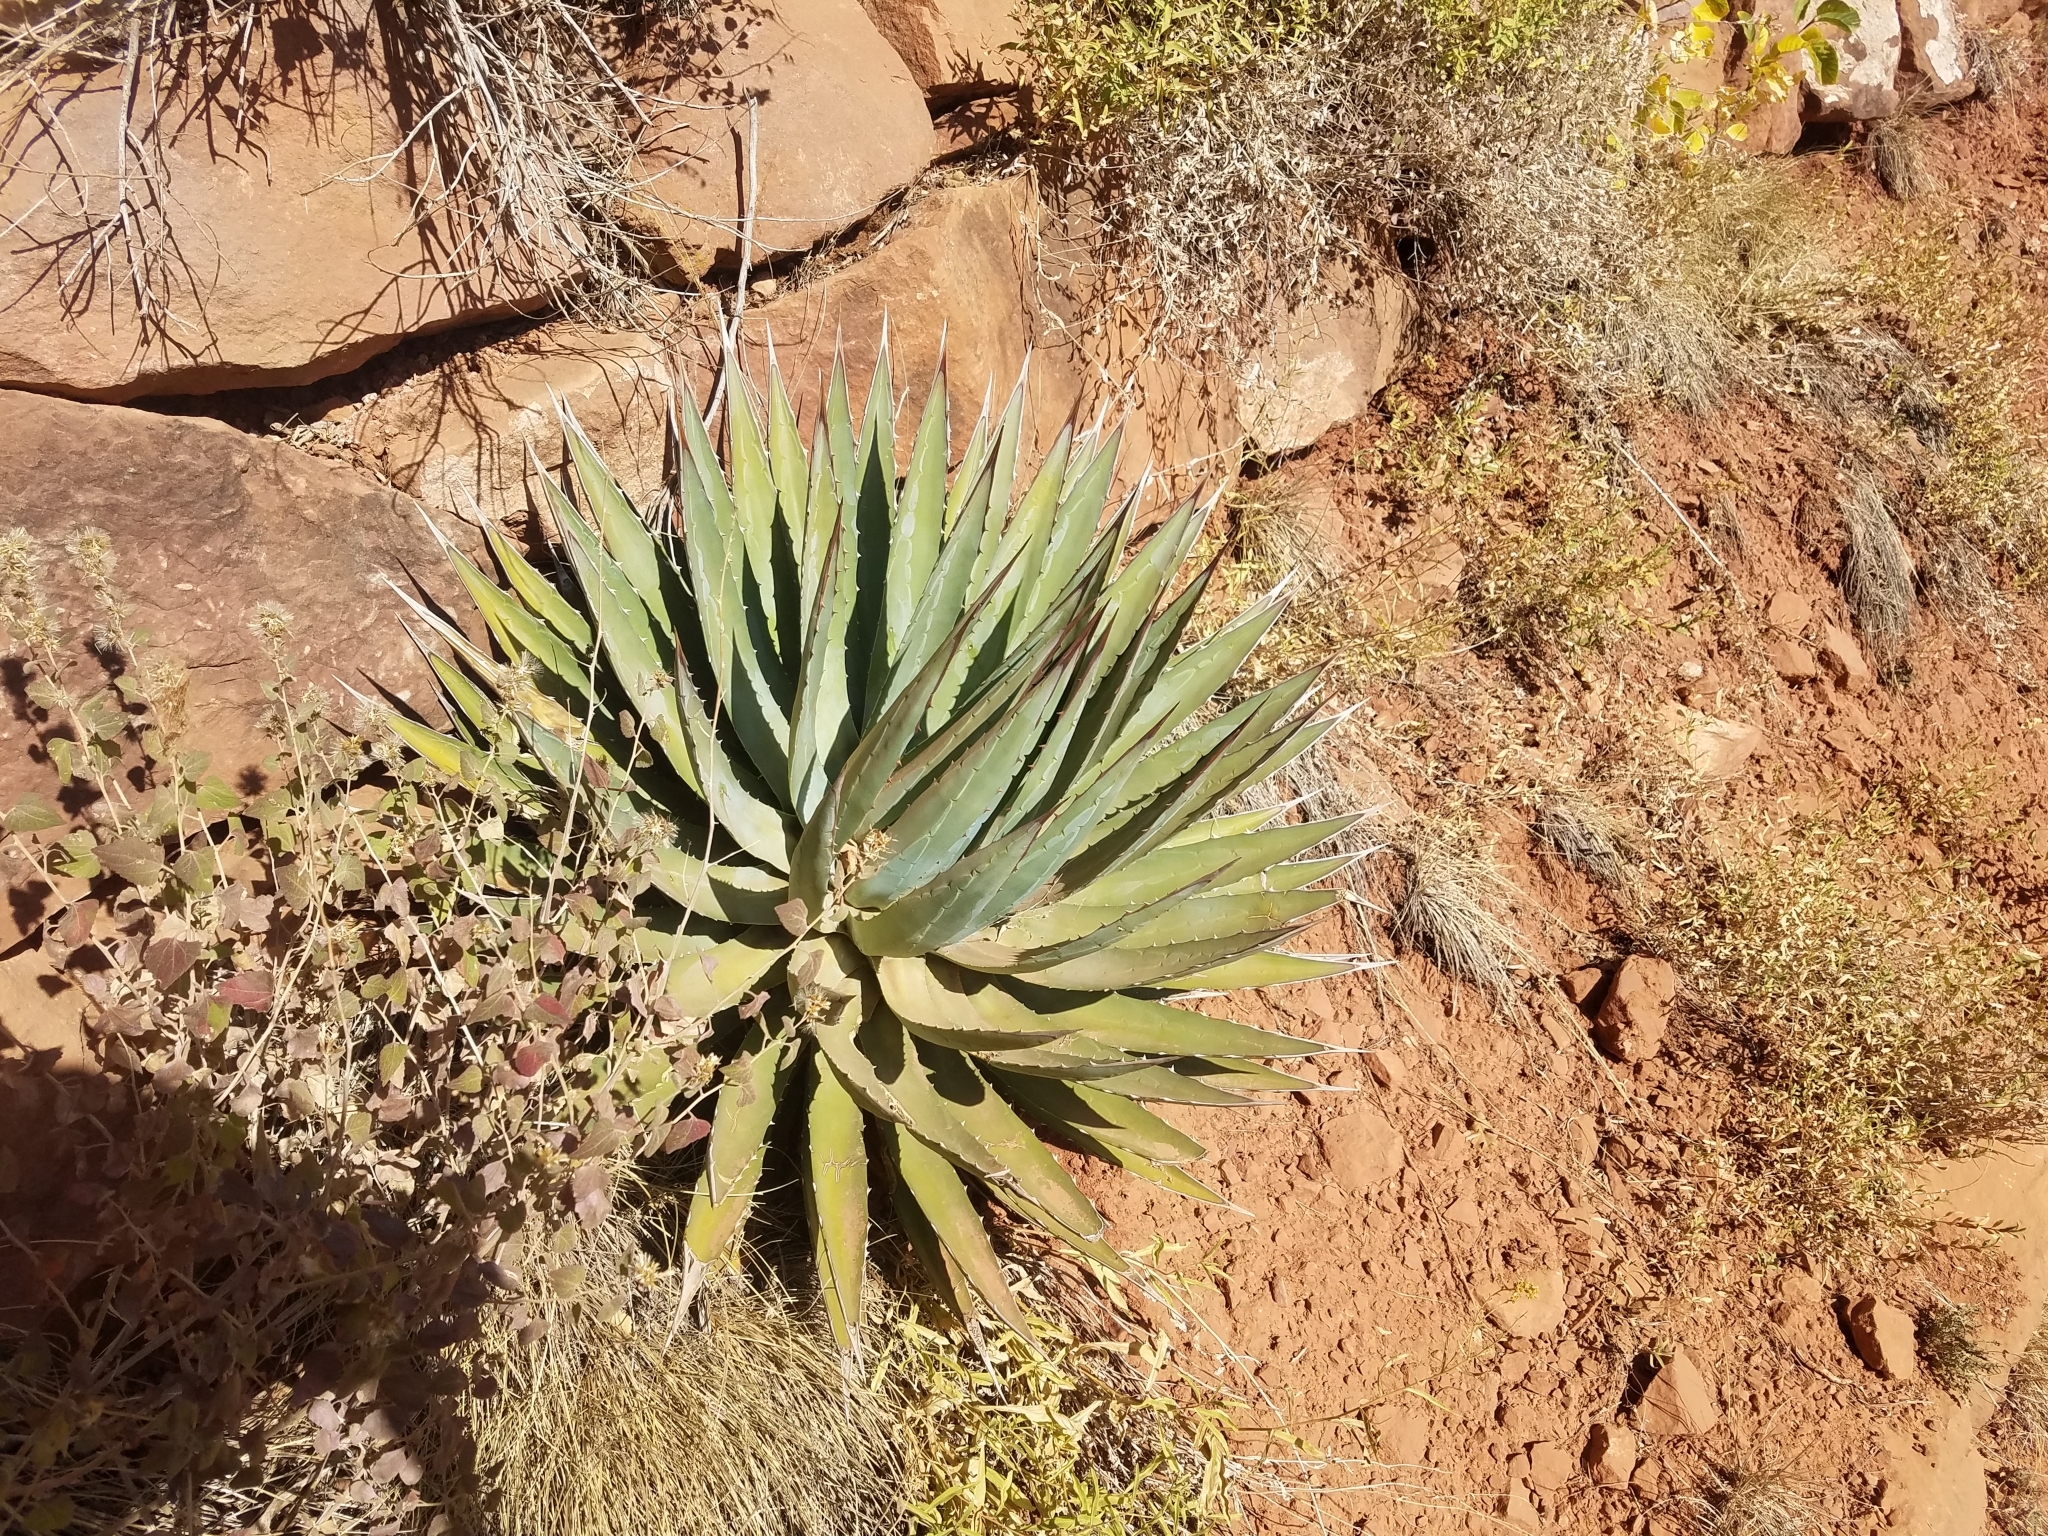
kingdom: Plantae
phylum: Tracheophyta
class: Liliopsida
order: Asparagales
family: Asparagaceae
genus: Agave
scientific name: Agave utahensis
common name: Utah agave
